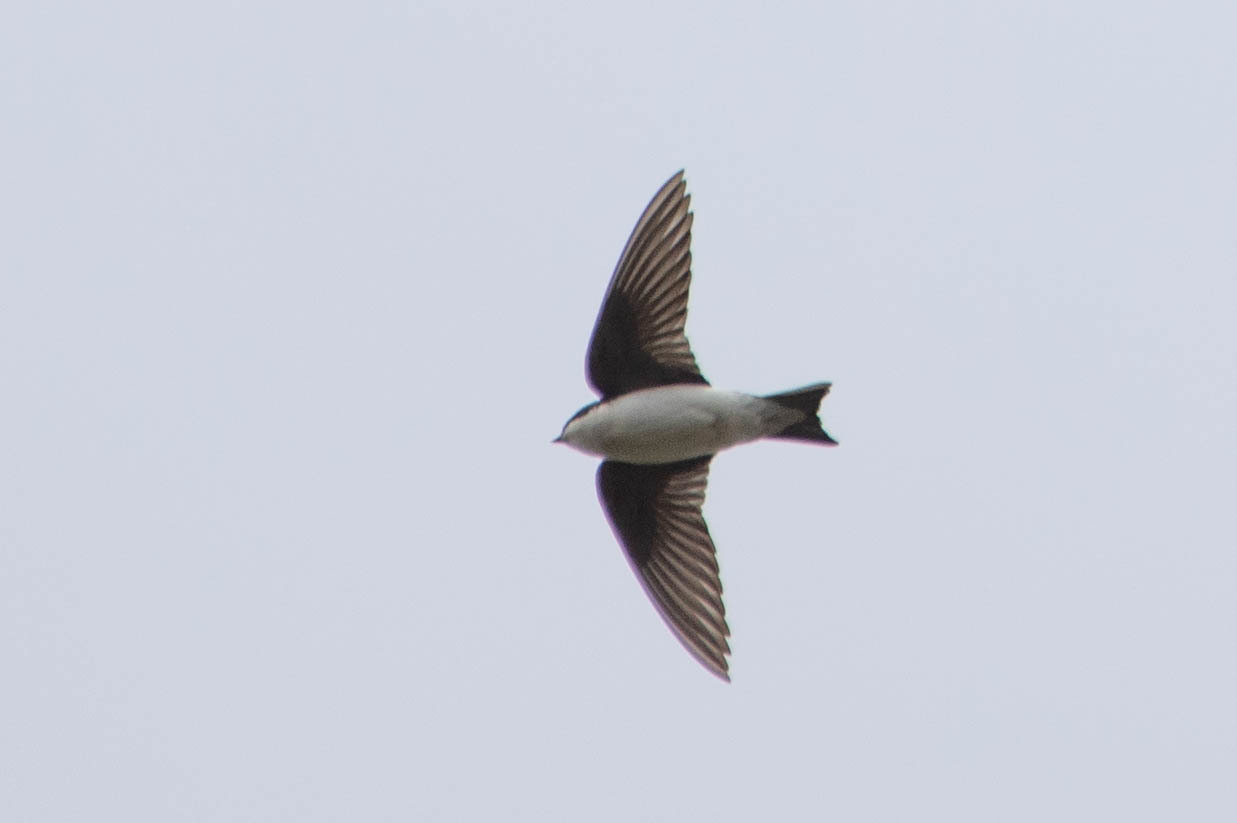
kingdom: Animalia
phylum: Chordata
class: Aves
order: Passeriformes
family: Hirundinidae
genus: Tachycineta
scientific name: Tachycineta bicolor
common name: Tree swallow
